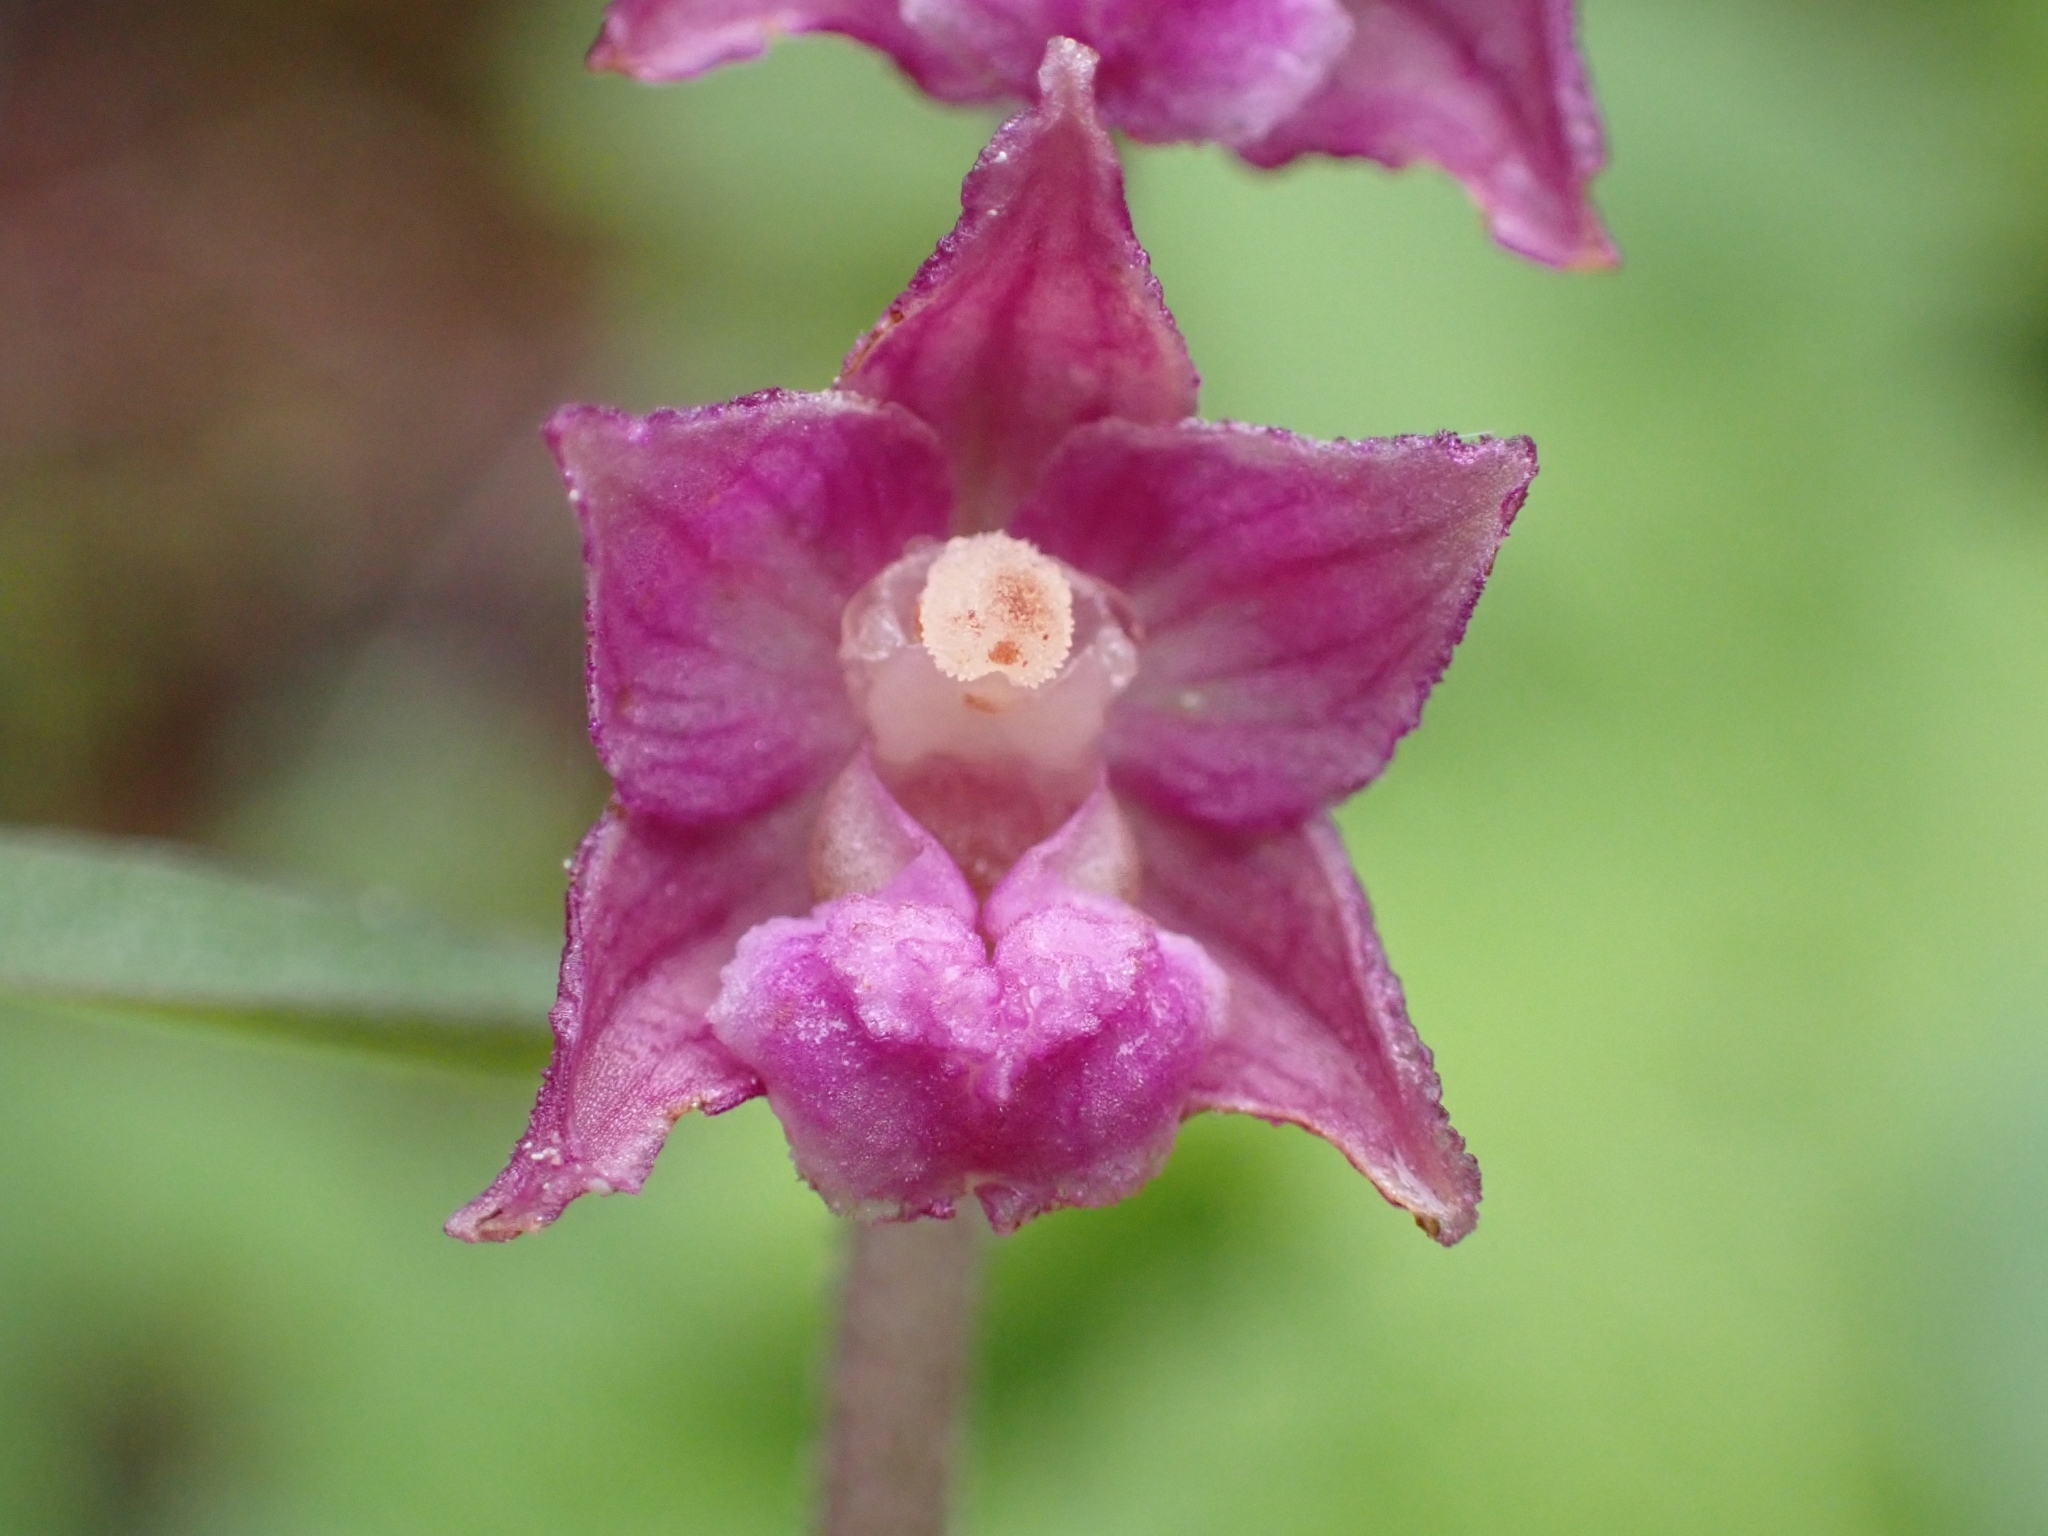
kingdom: Plantae
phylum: Tracheophyta
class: Liliopsida
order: Asparagales
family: Orchidaceae
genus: Epipactis
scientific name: Epipactis atrorubens
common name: Dark-red helleborine
